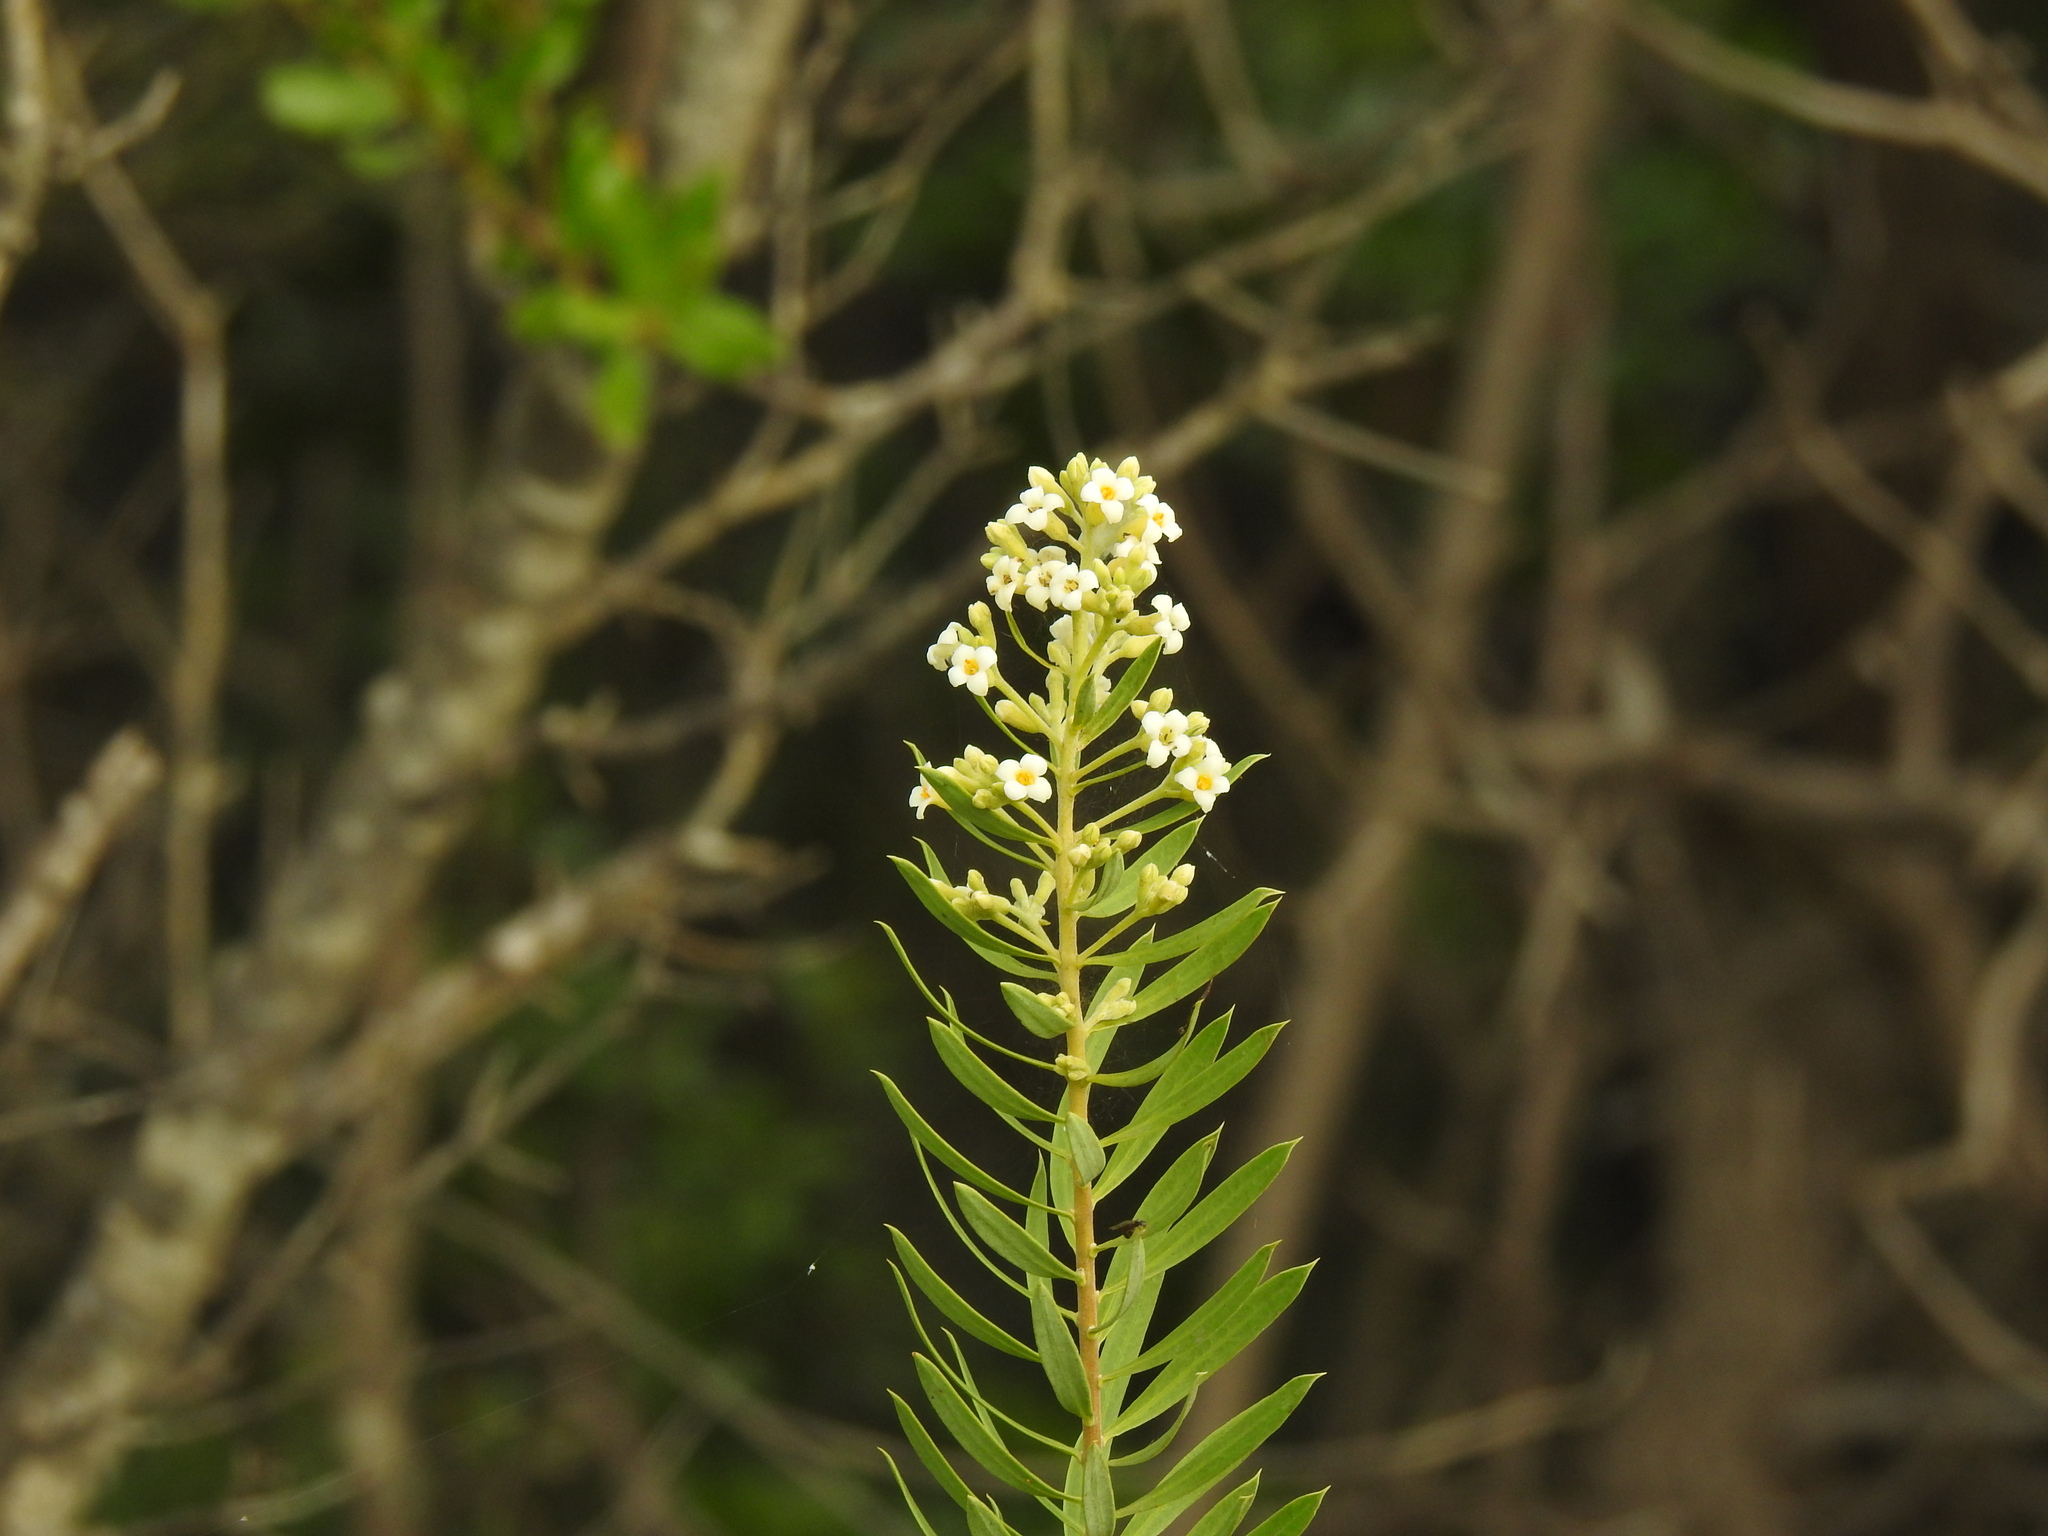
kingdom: Plantae
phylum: Tracheophyta
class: Magnoliopsida
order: Malvales
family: Thymelaeaceae
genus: Daphne
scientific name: Daphne gnidium
